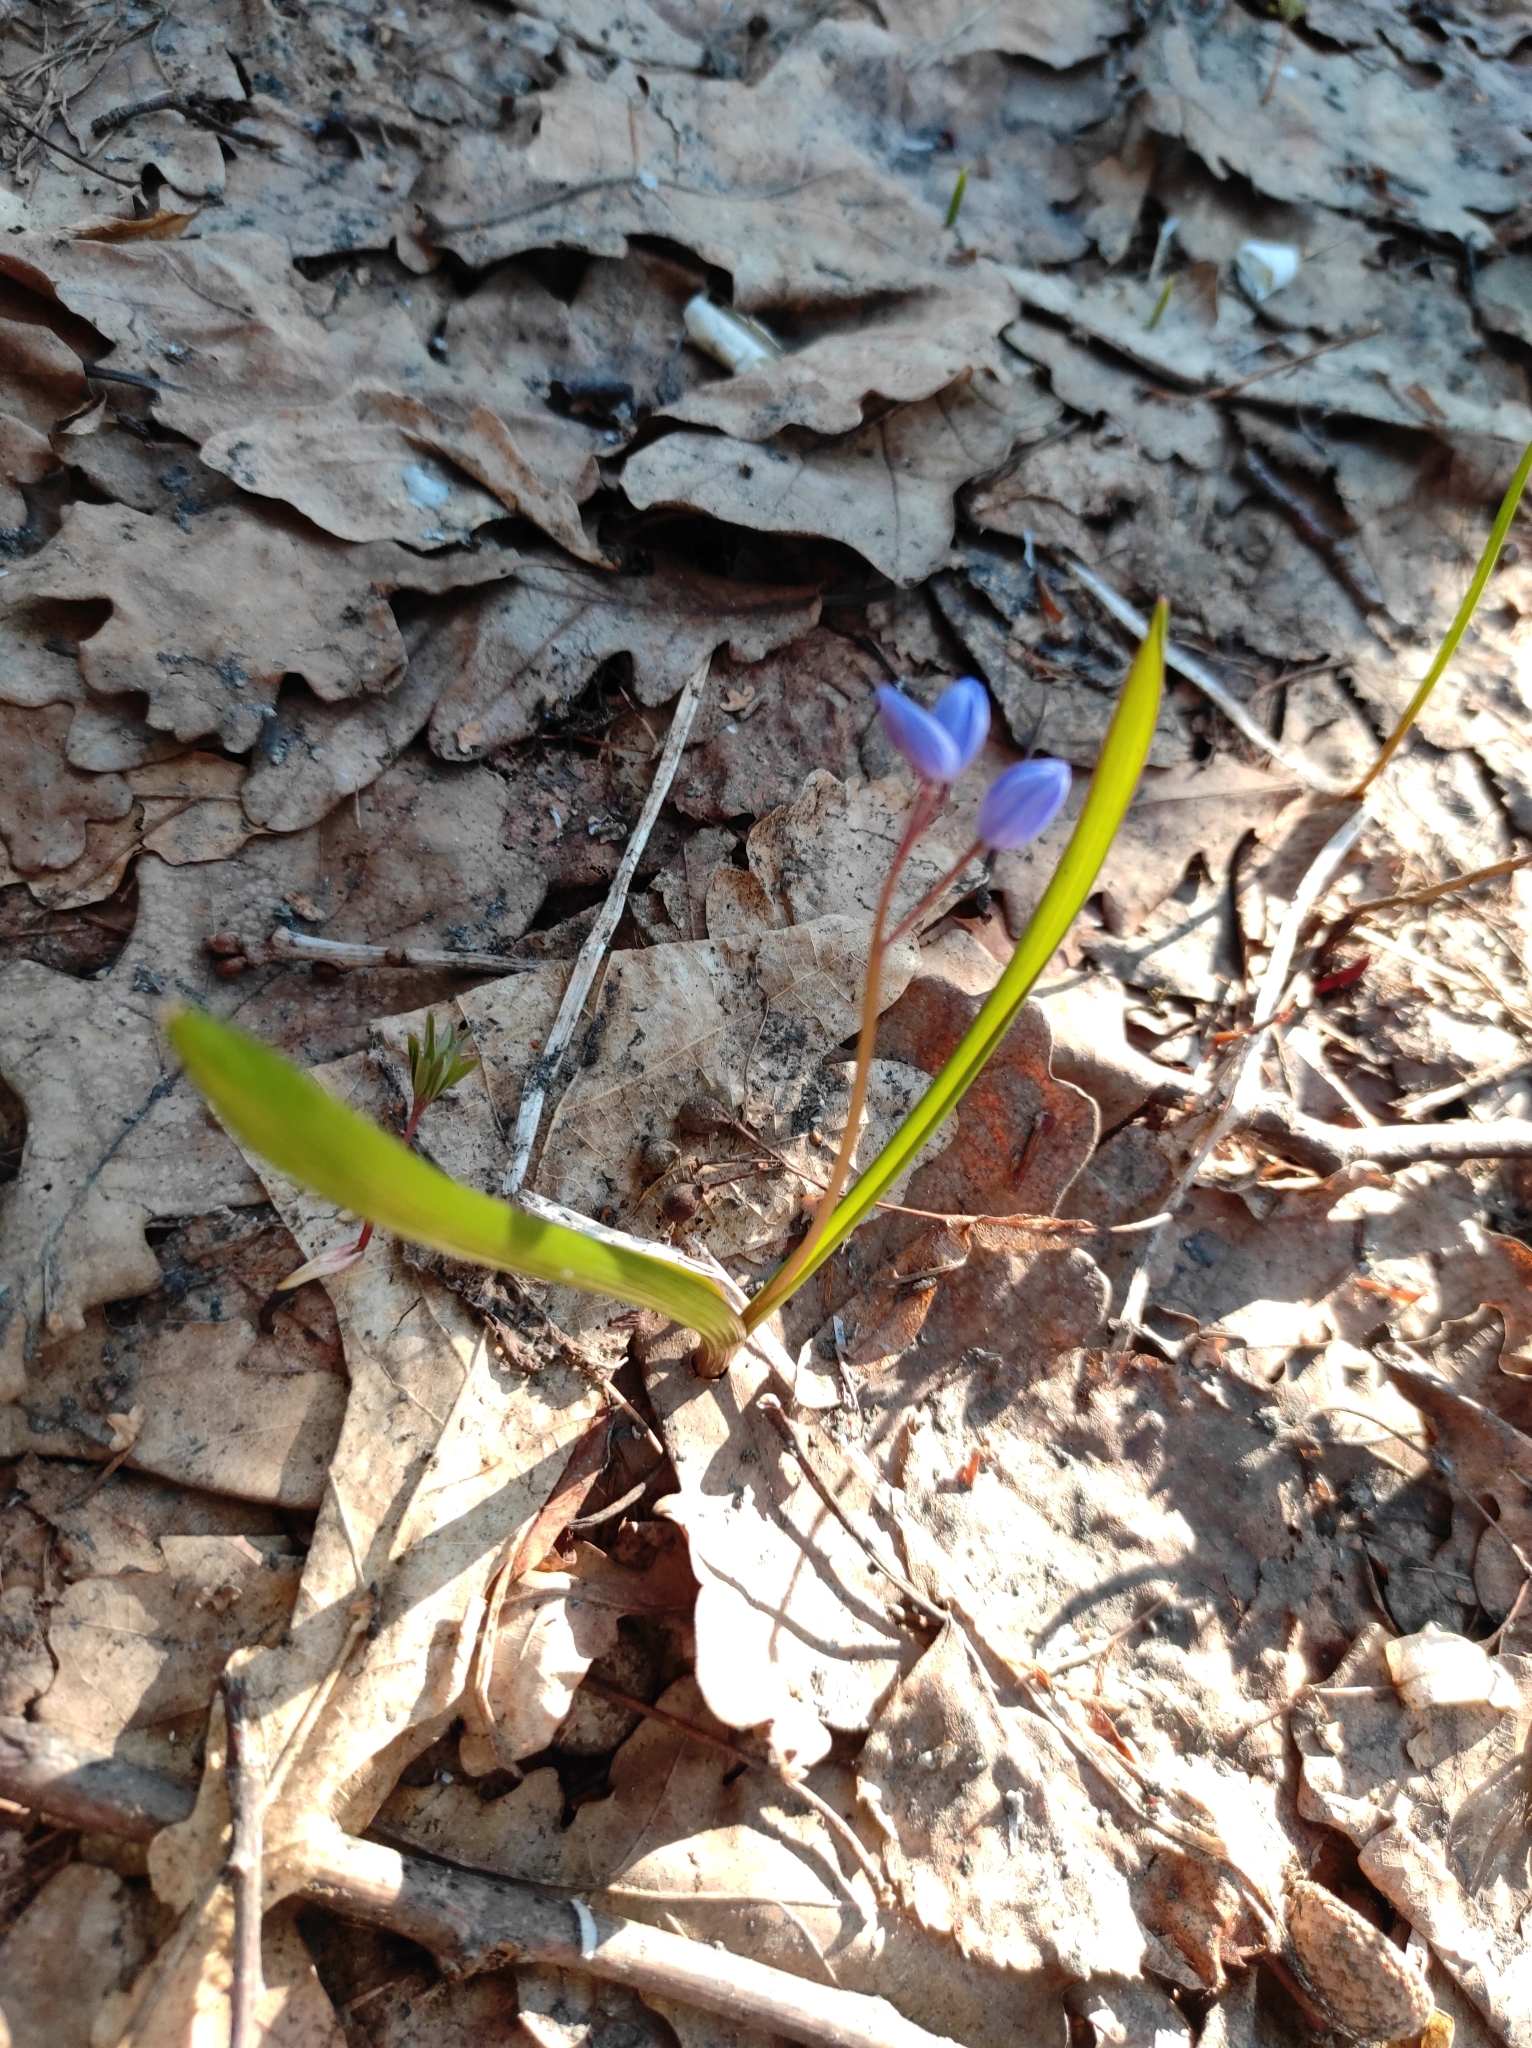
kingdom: Plantae
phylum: Tracheophyta
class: Liliopsida
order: Asparagales
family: Asparagaceae
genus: Scilla
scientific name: Scilla siberica
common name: Siberian squill
